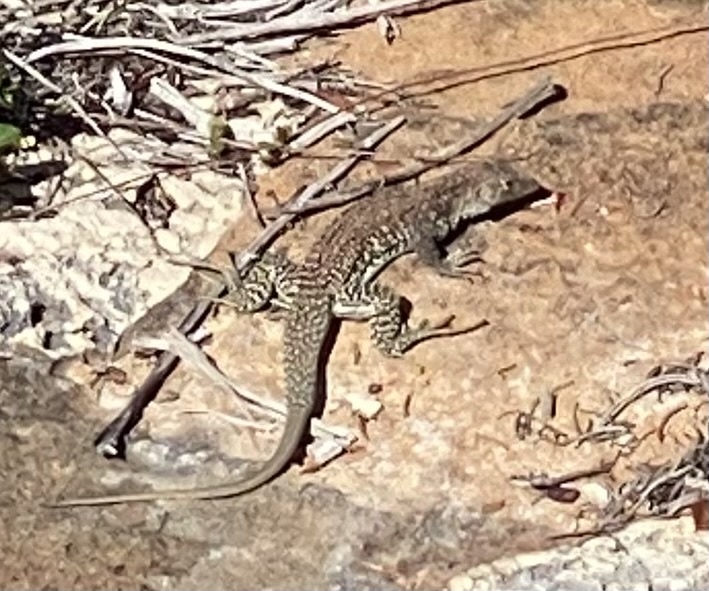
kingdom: Animalia
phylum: Chordata
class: Squamata
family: Teiidae
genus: Pholidoscelis
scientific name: Pholidoscelis plei
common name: Anguilla bank ameiva
